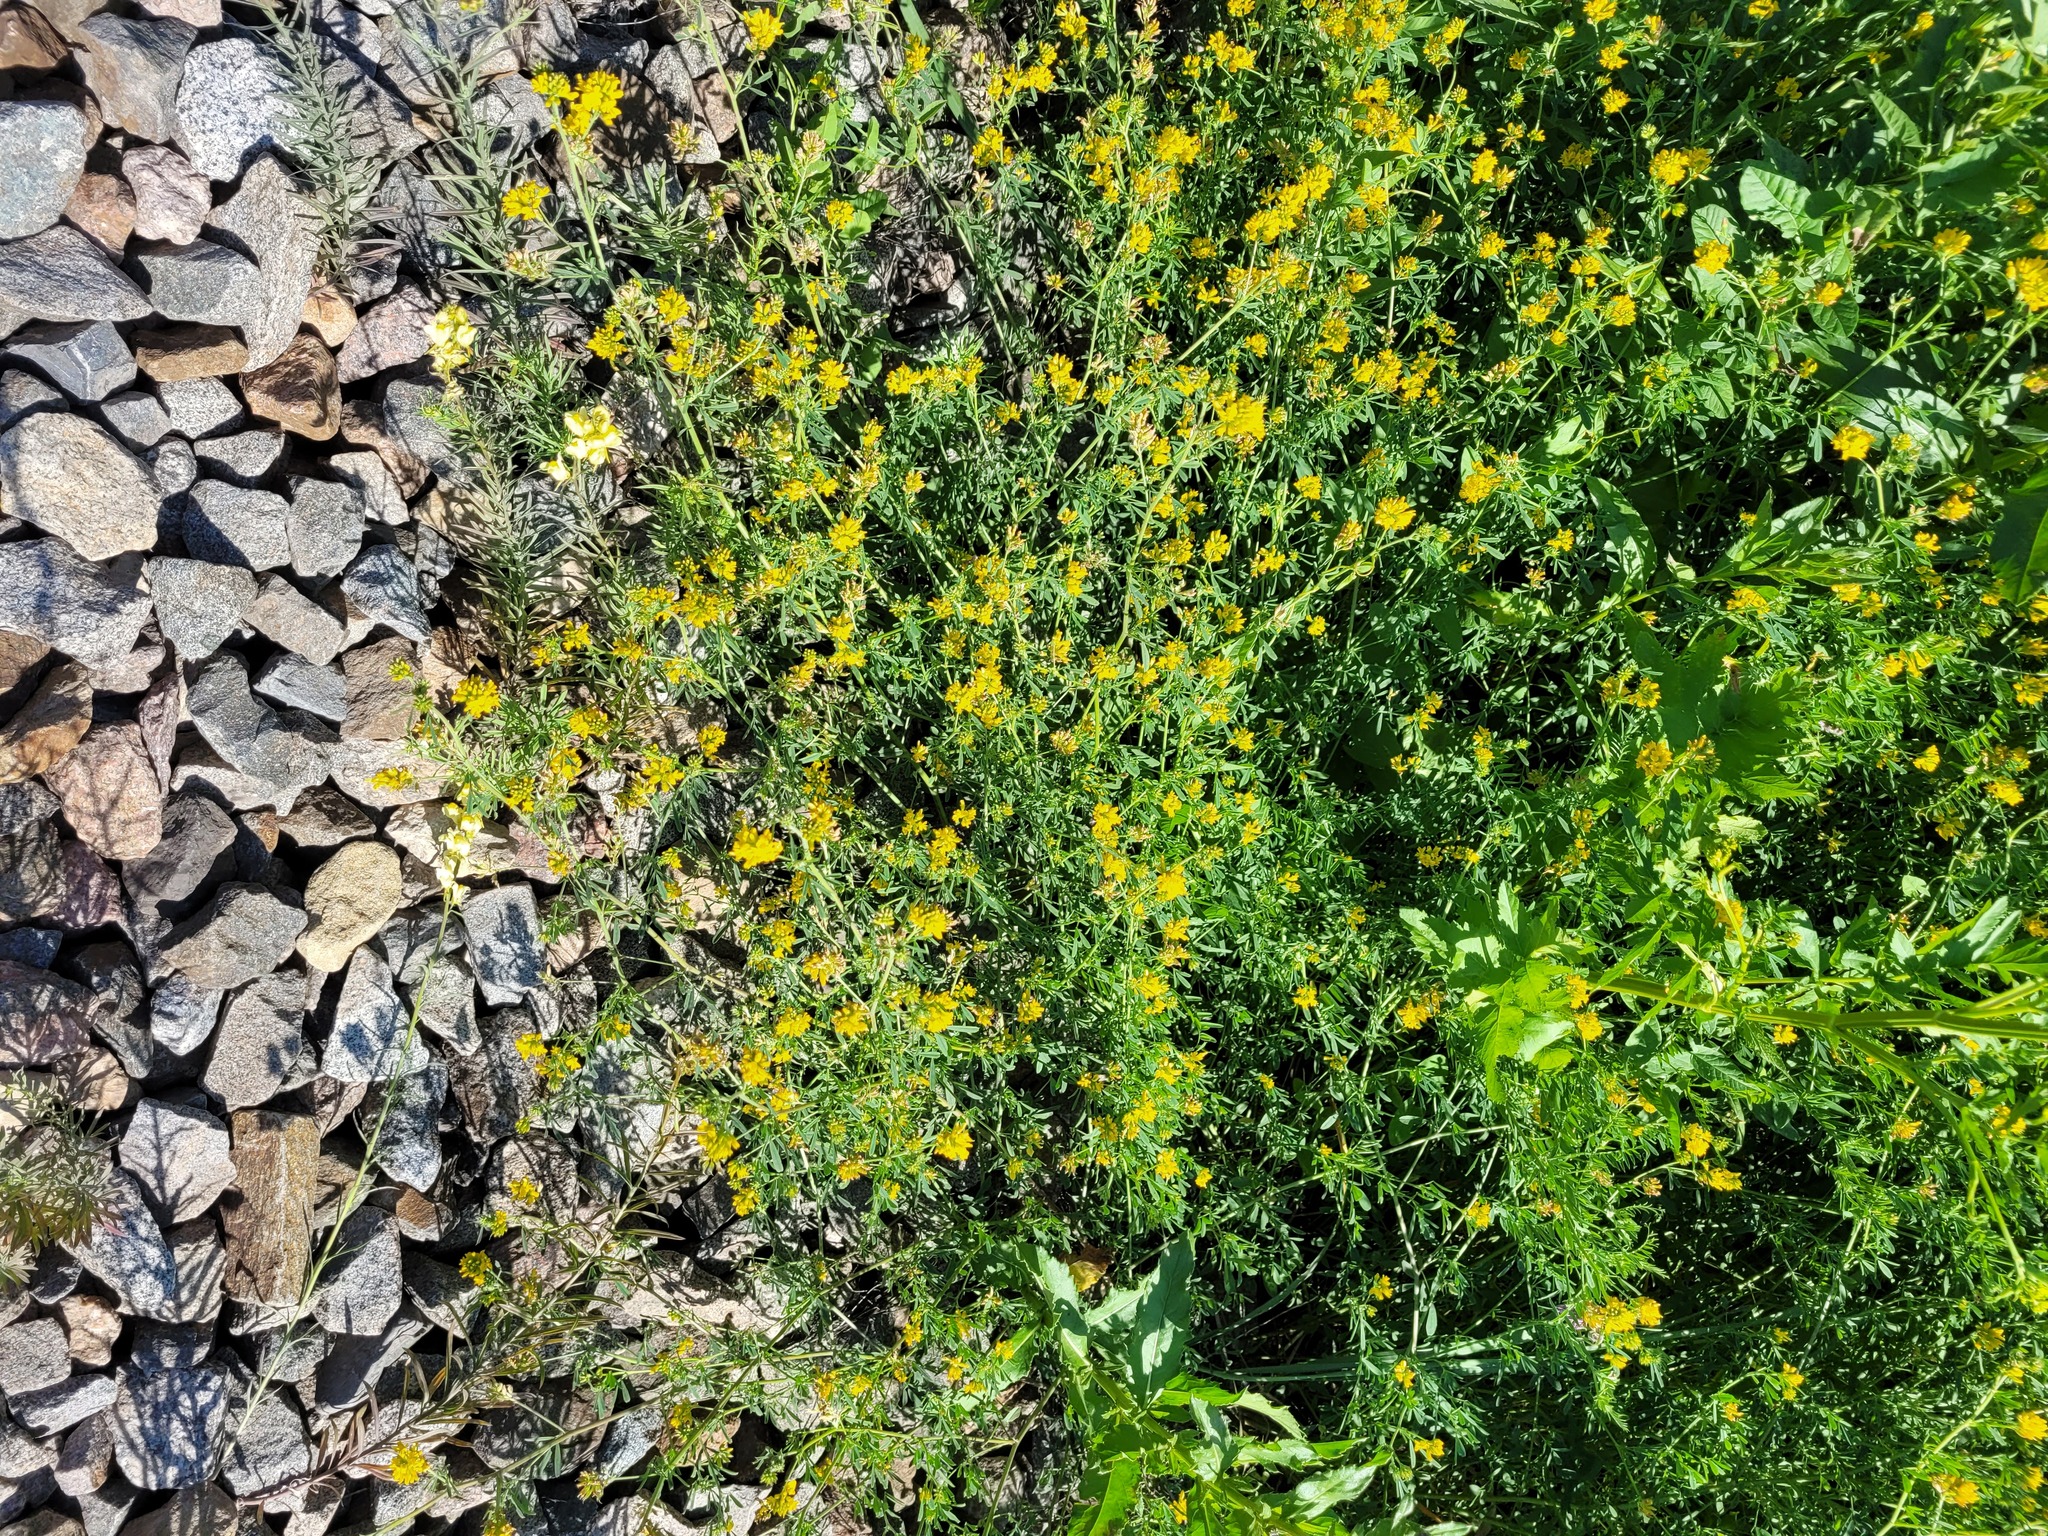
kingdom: Plantae
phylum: Tracheophyta
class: Magnoliopsida
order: Fabales
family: Fabaceae
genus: Medicago
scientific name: Medicago falcata
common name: Sickle medick
